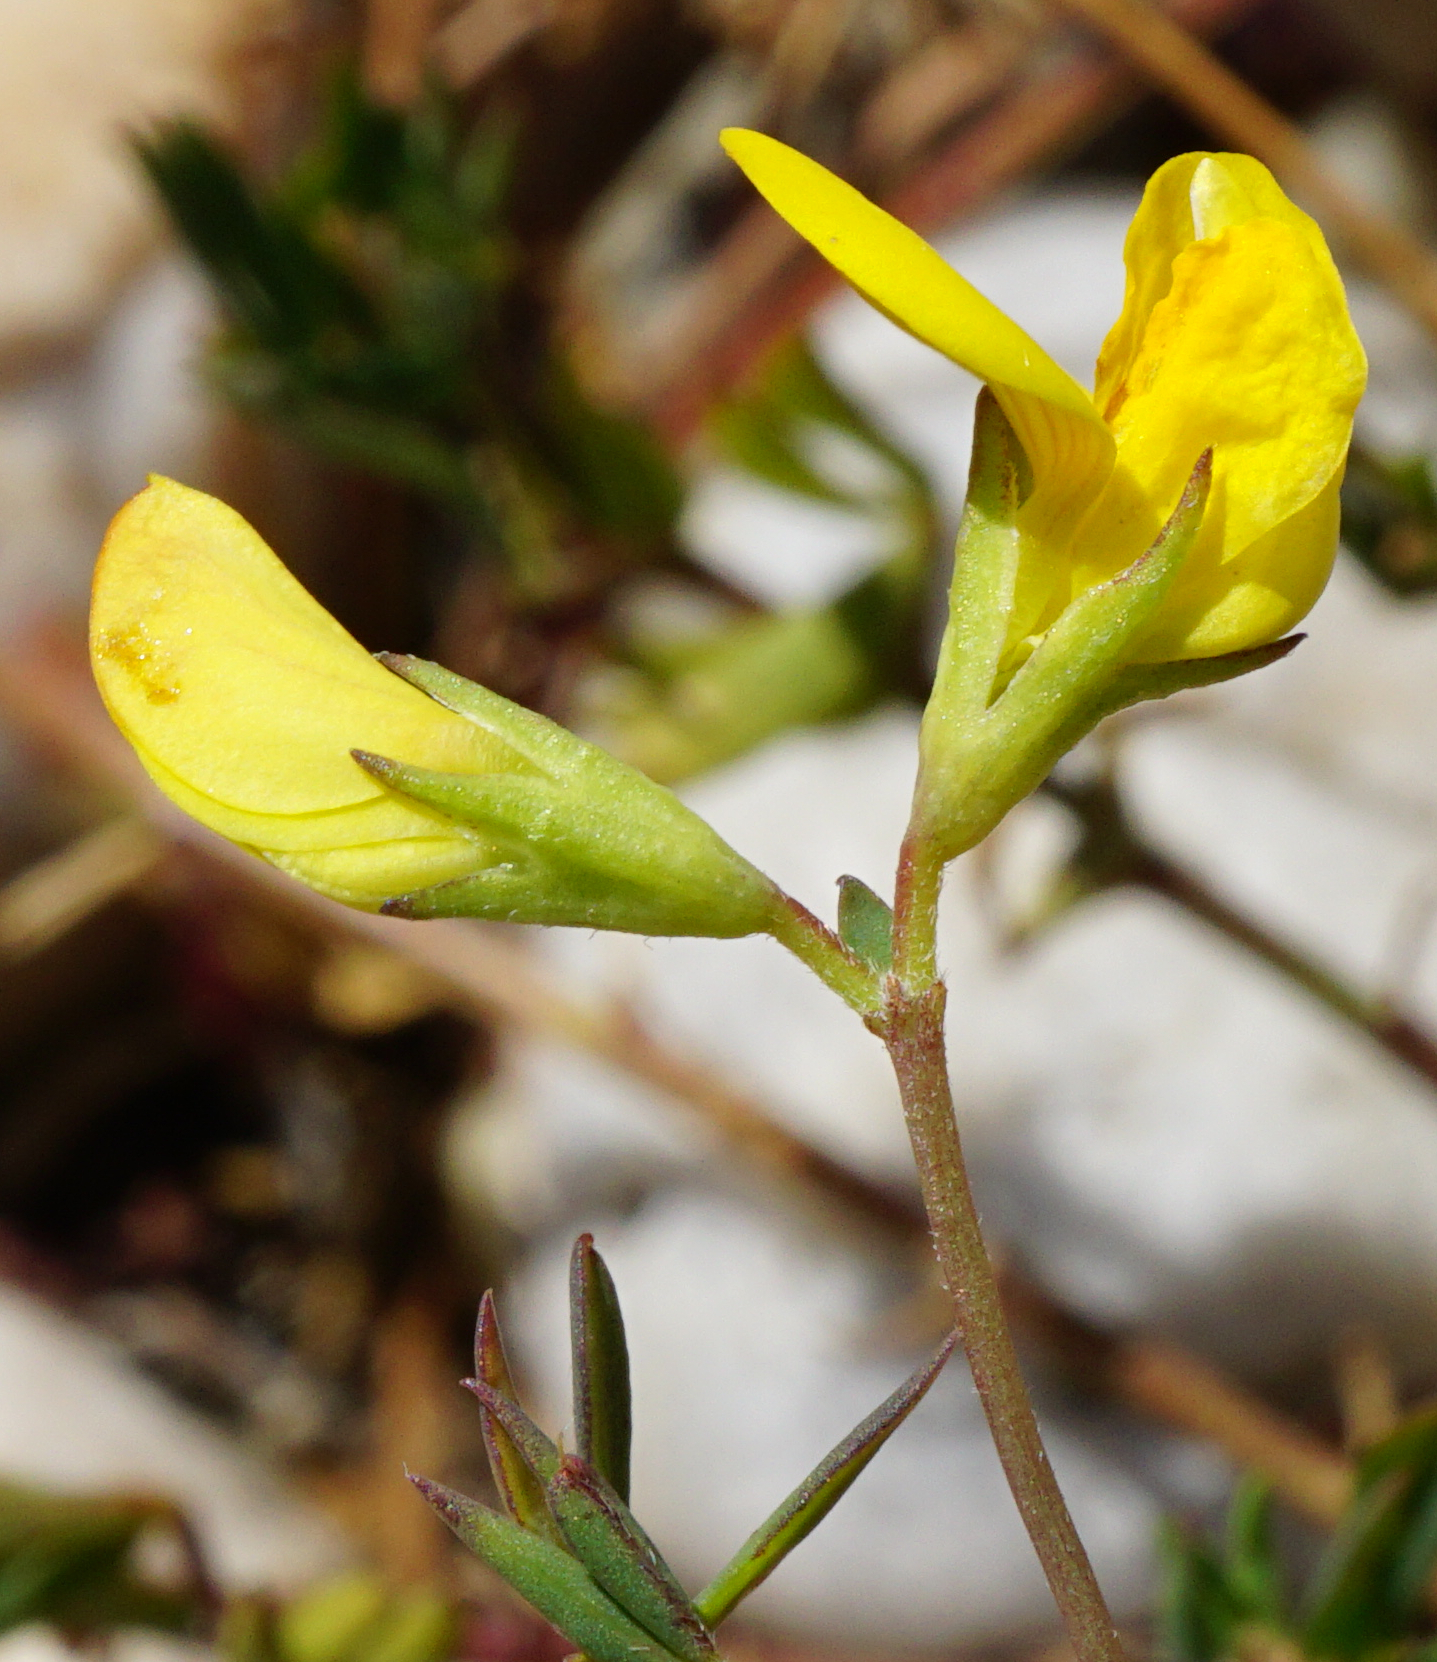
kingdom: Plantae
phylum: Tracheophyta
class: Magnoliopsida
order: Fabales
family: Fabaceae
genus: Lotus
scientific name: Lotus tenuis
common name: Narrow-leaved bird's-foot-trefoil
